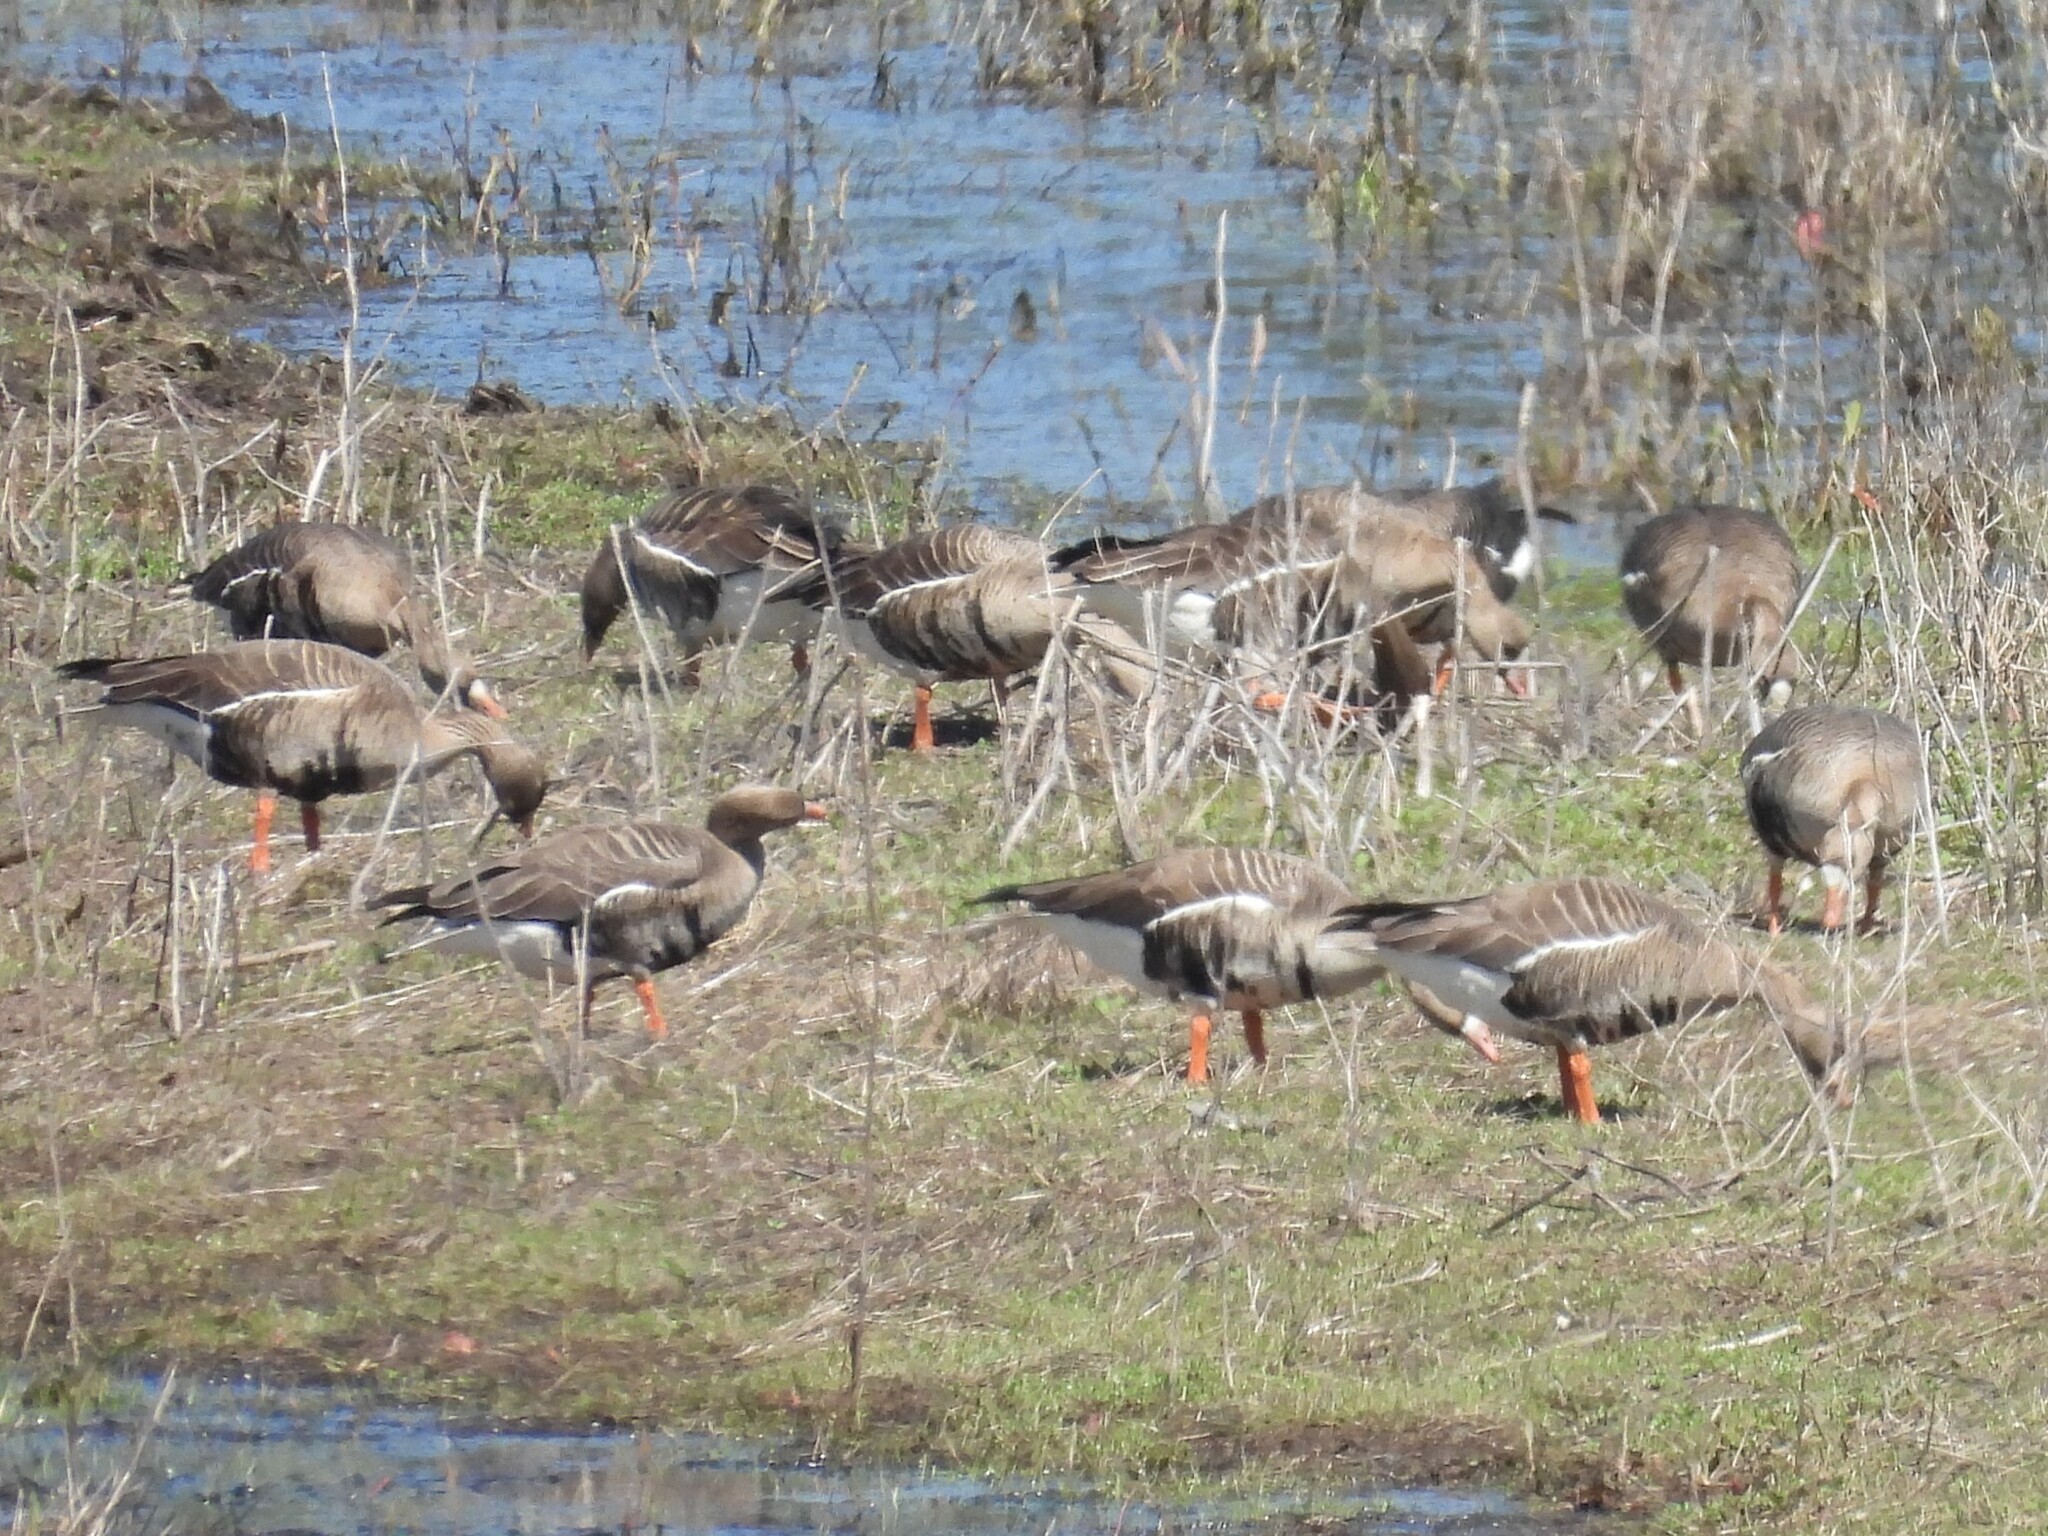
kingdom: Animalia
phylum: Chordata
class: Aves
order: Anseriformes
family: Anatidae
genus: Anser
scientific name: Anser albifrons
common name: Greater white-fronted goose
